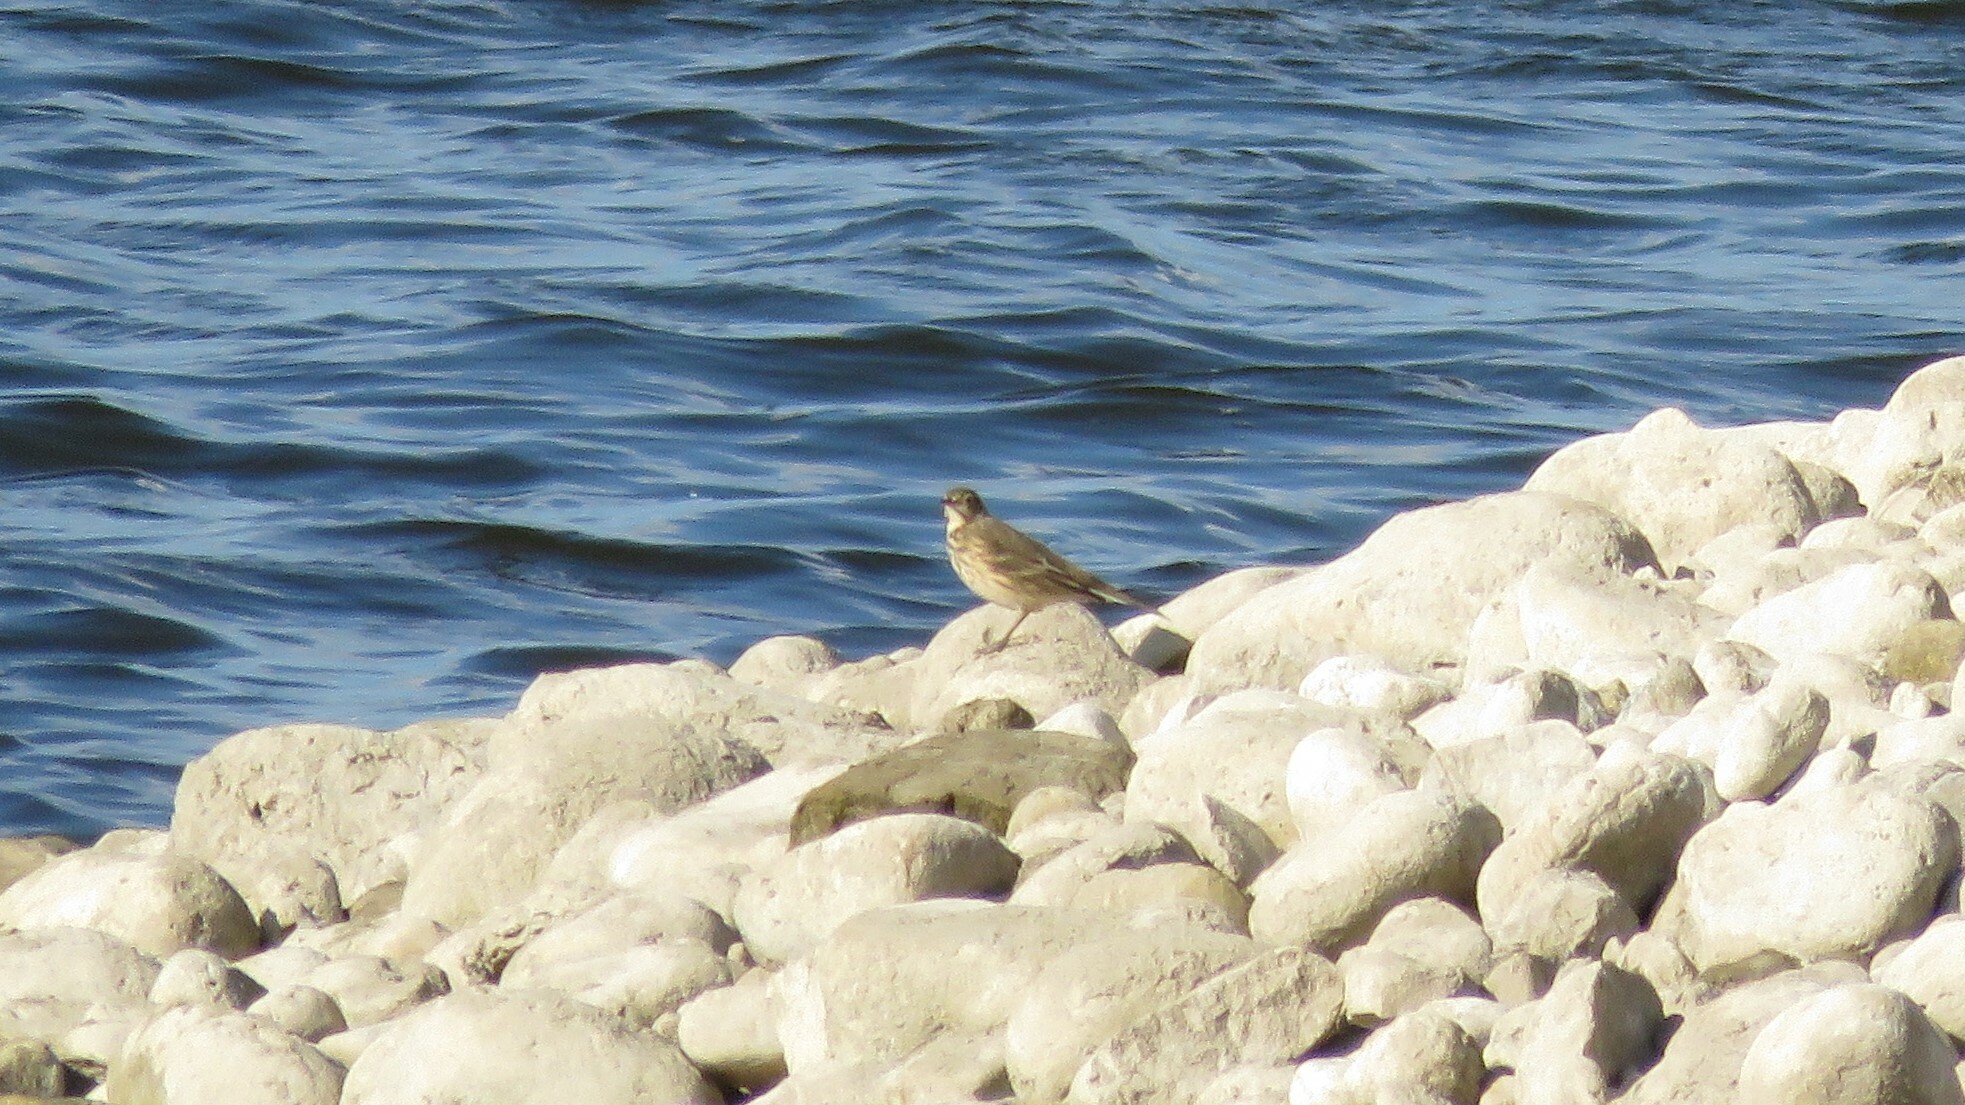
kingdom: Animalia
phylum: Chordata
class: Aves
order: Passeriformes
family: Motacillidae
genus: Anthus
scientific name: Anthus rubescens
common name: Buff-bellied pipit
